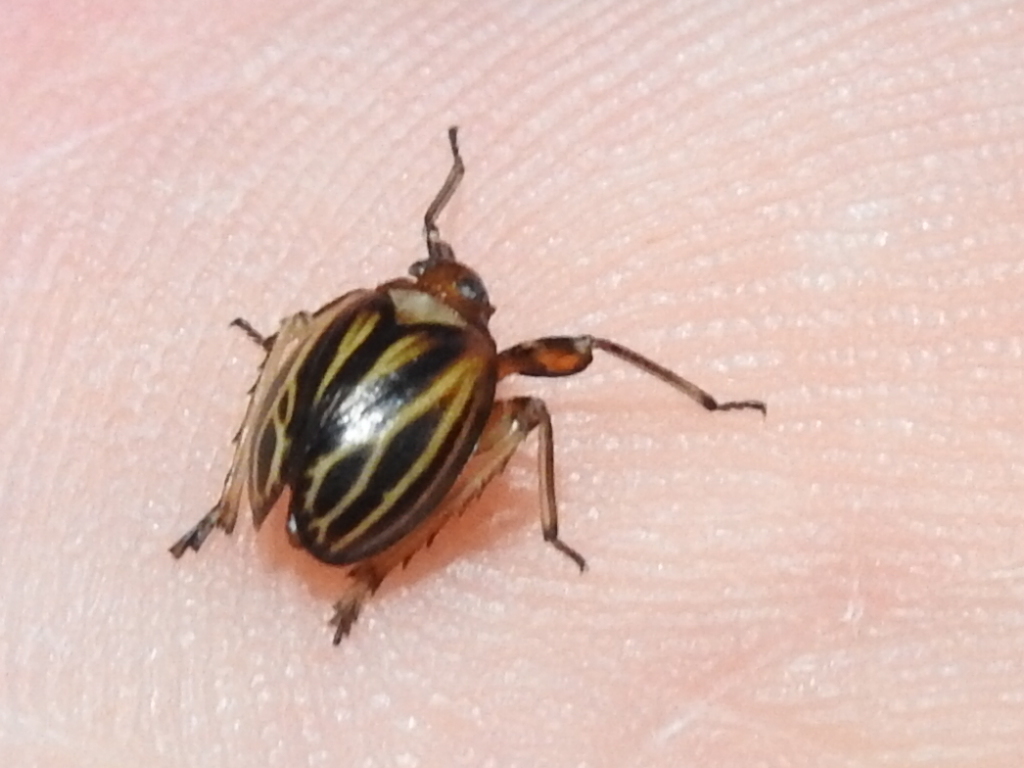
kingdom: Animalia
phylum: Arthropoda
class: Insecta
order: Hemiptera
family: Achilidae
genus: Isodaemon
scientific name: Isodaemon orontes
